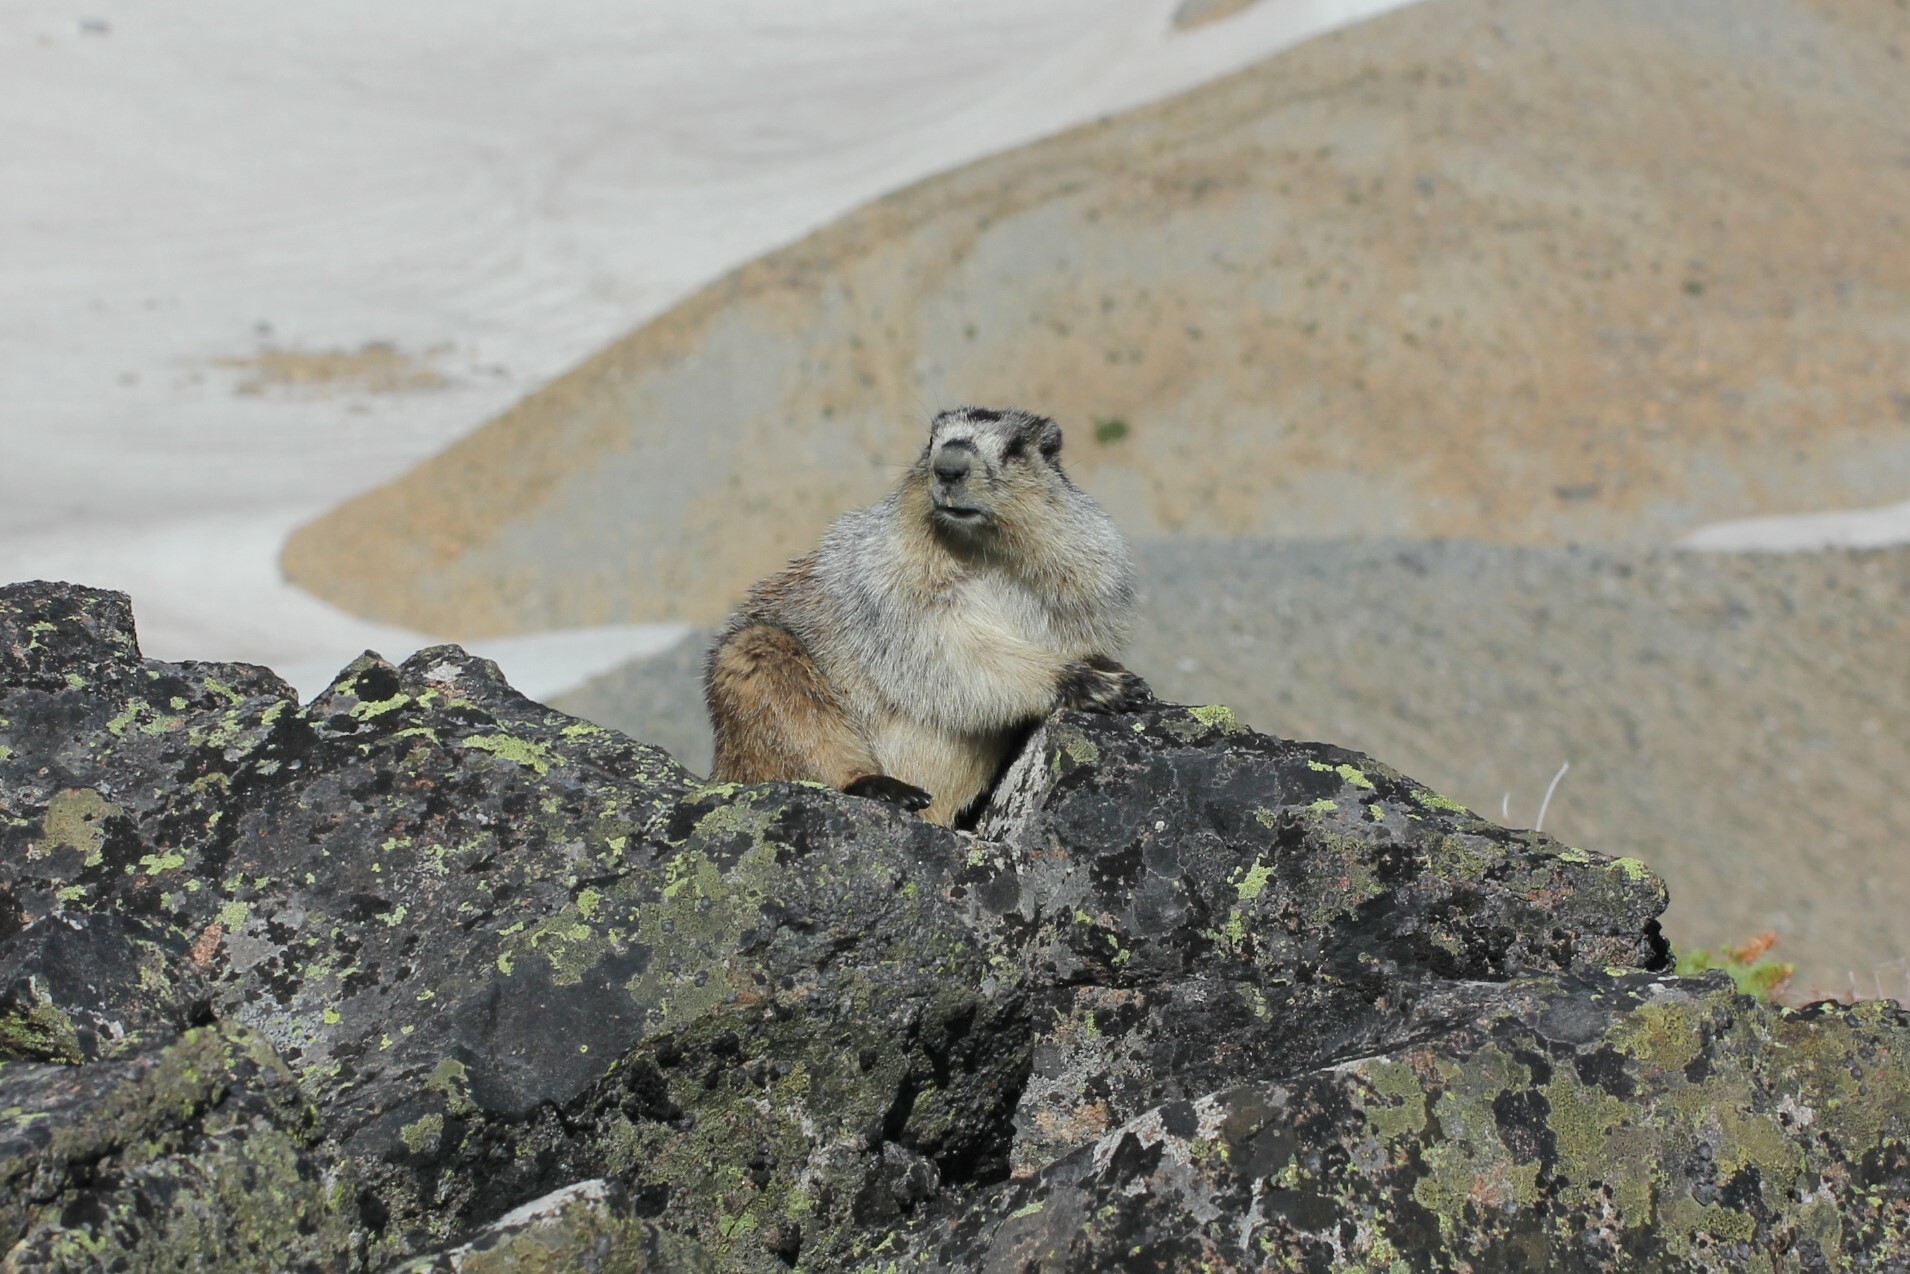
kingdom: Animalia
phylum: Chordata
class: Mammalia
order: Rodentia
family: Sciuridae
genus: Marmota
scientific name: Marmota caligata
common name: Hoary marmot
